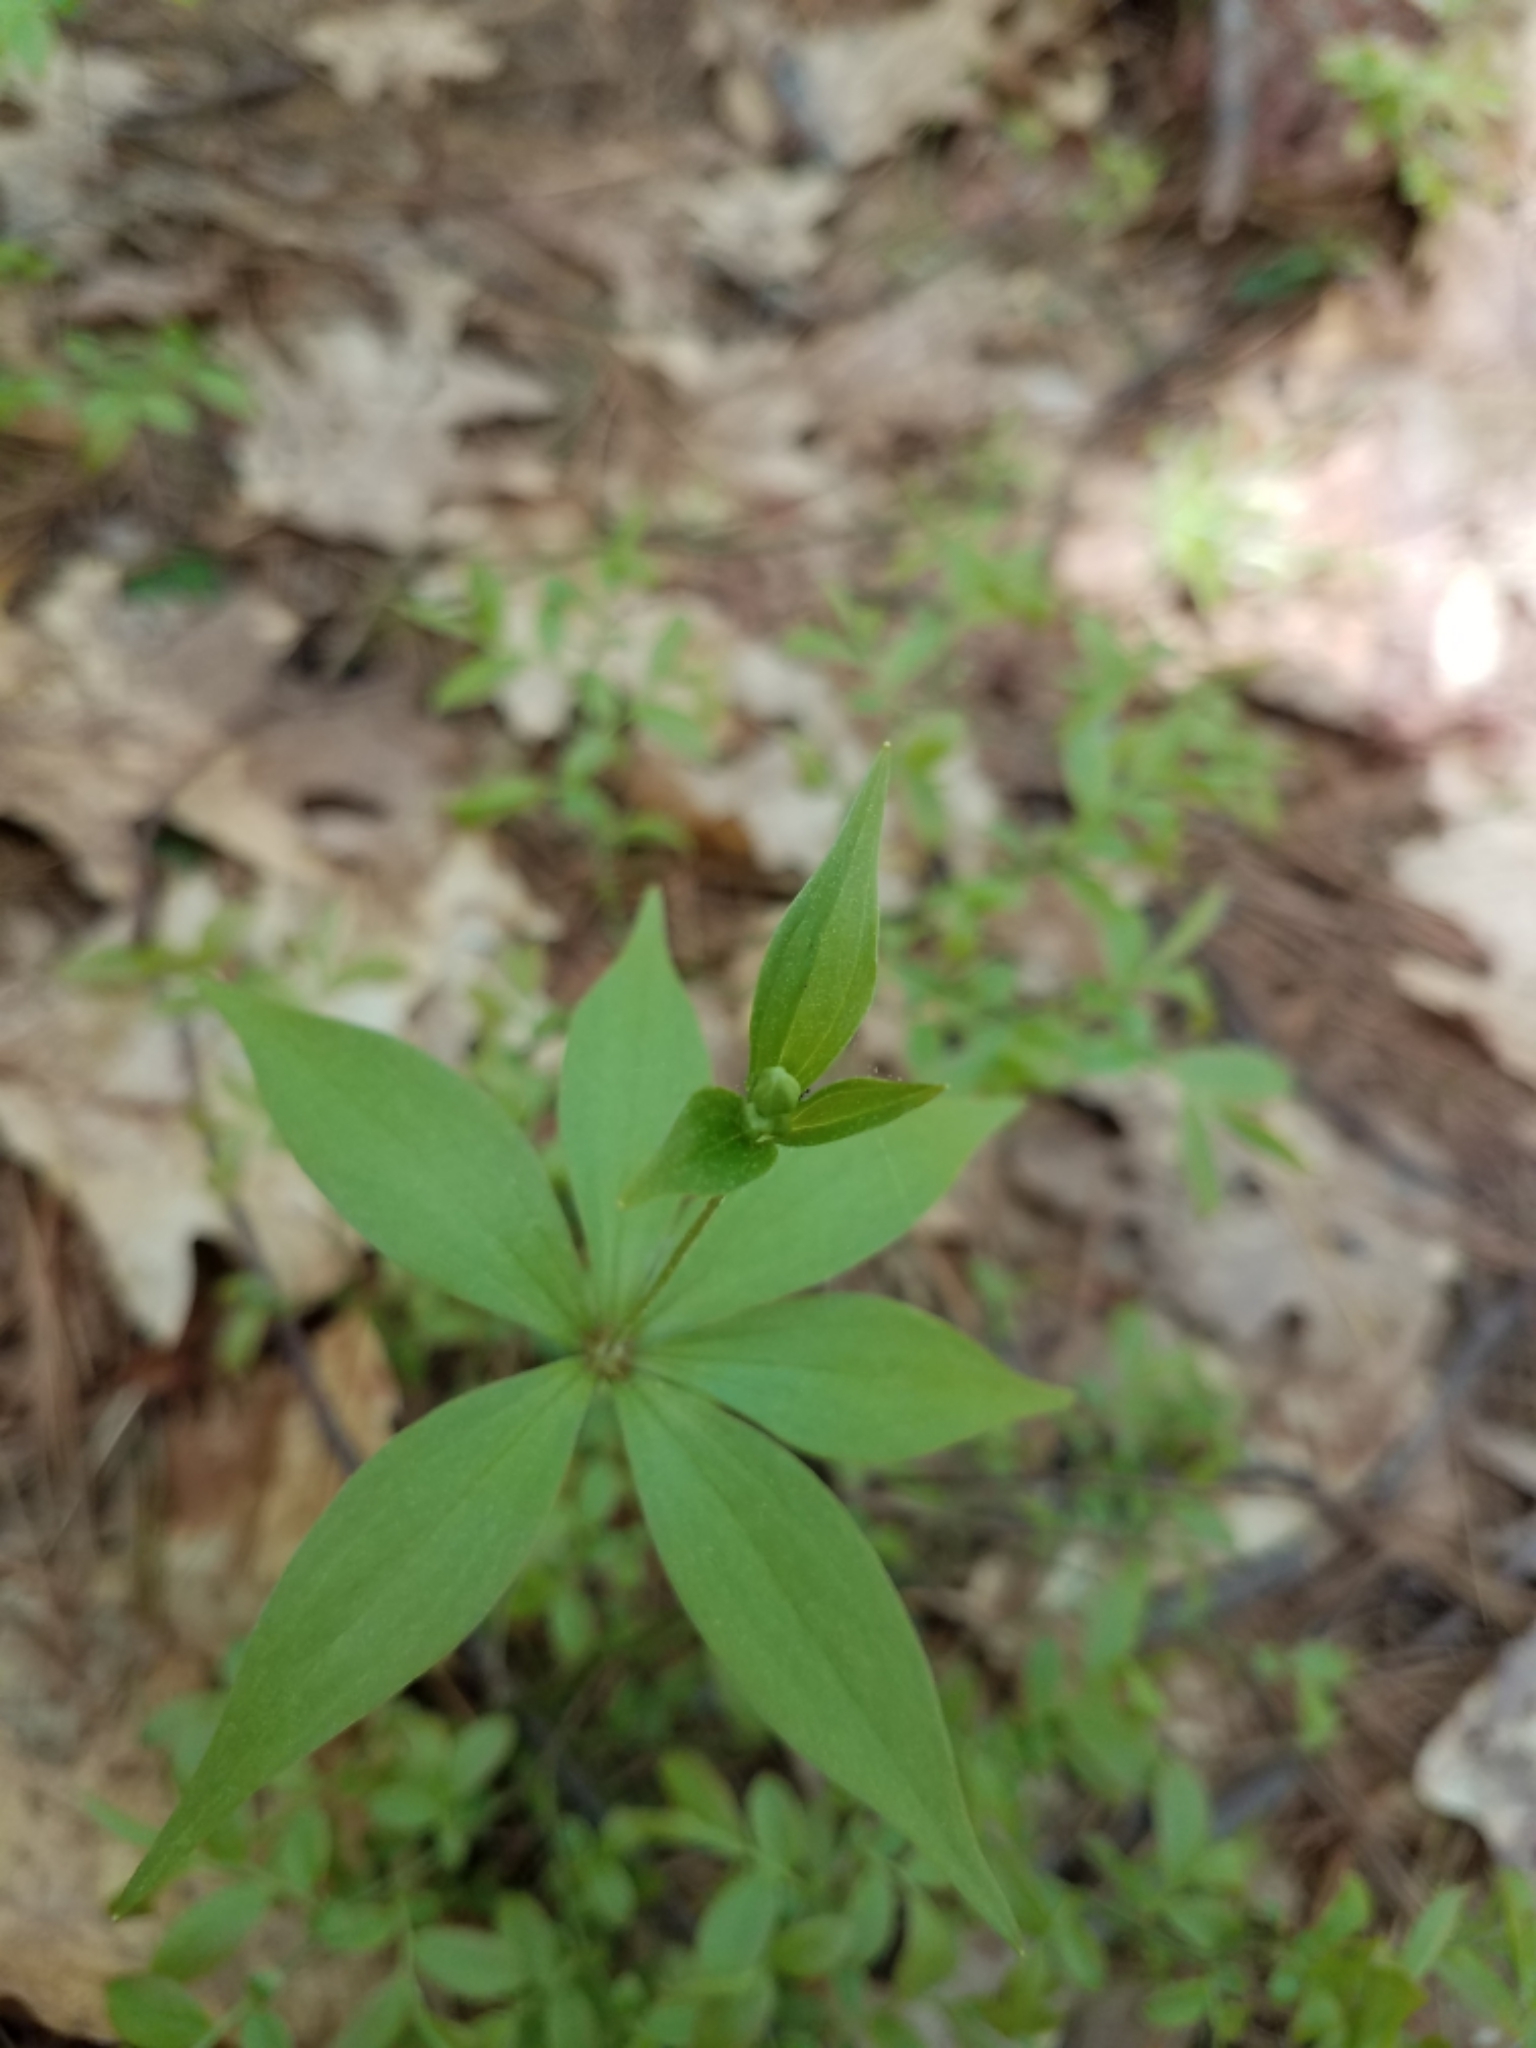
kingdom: Plantae
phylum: Tracheophyta
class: Liliopsida
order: Liliales
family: Liliaceae
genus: Medeola
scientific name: Medeola virginiana
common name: Indian cucumber-root
